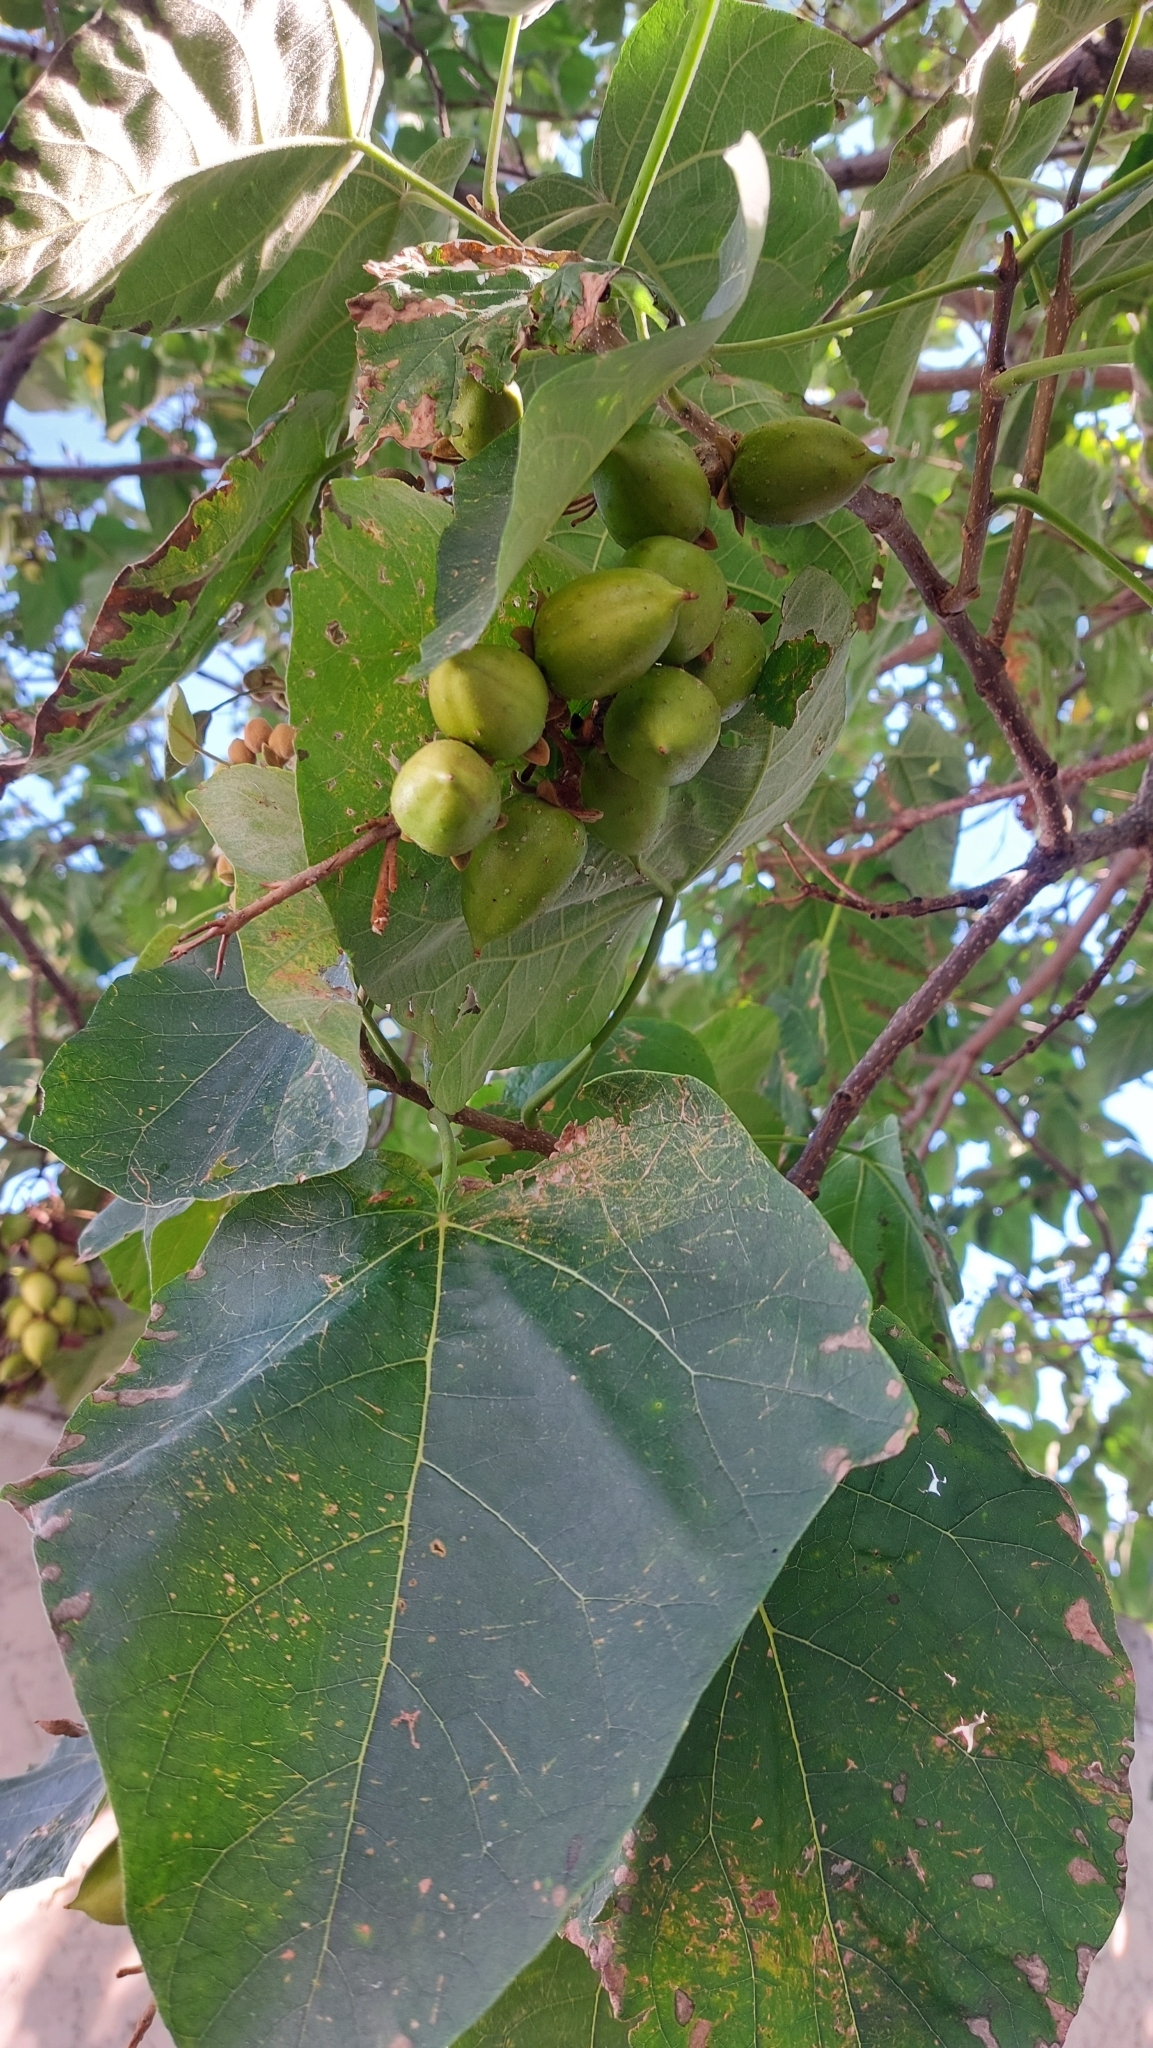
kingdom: Plantae
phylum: Tracheophyta
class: Magnoliopsida
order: Lamiales
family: Paulowniaceae
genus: Paulownia
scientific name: Paulownia tomentosa
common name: Foxglove-tree
